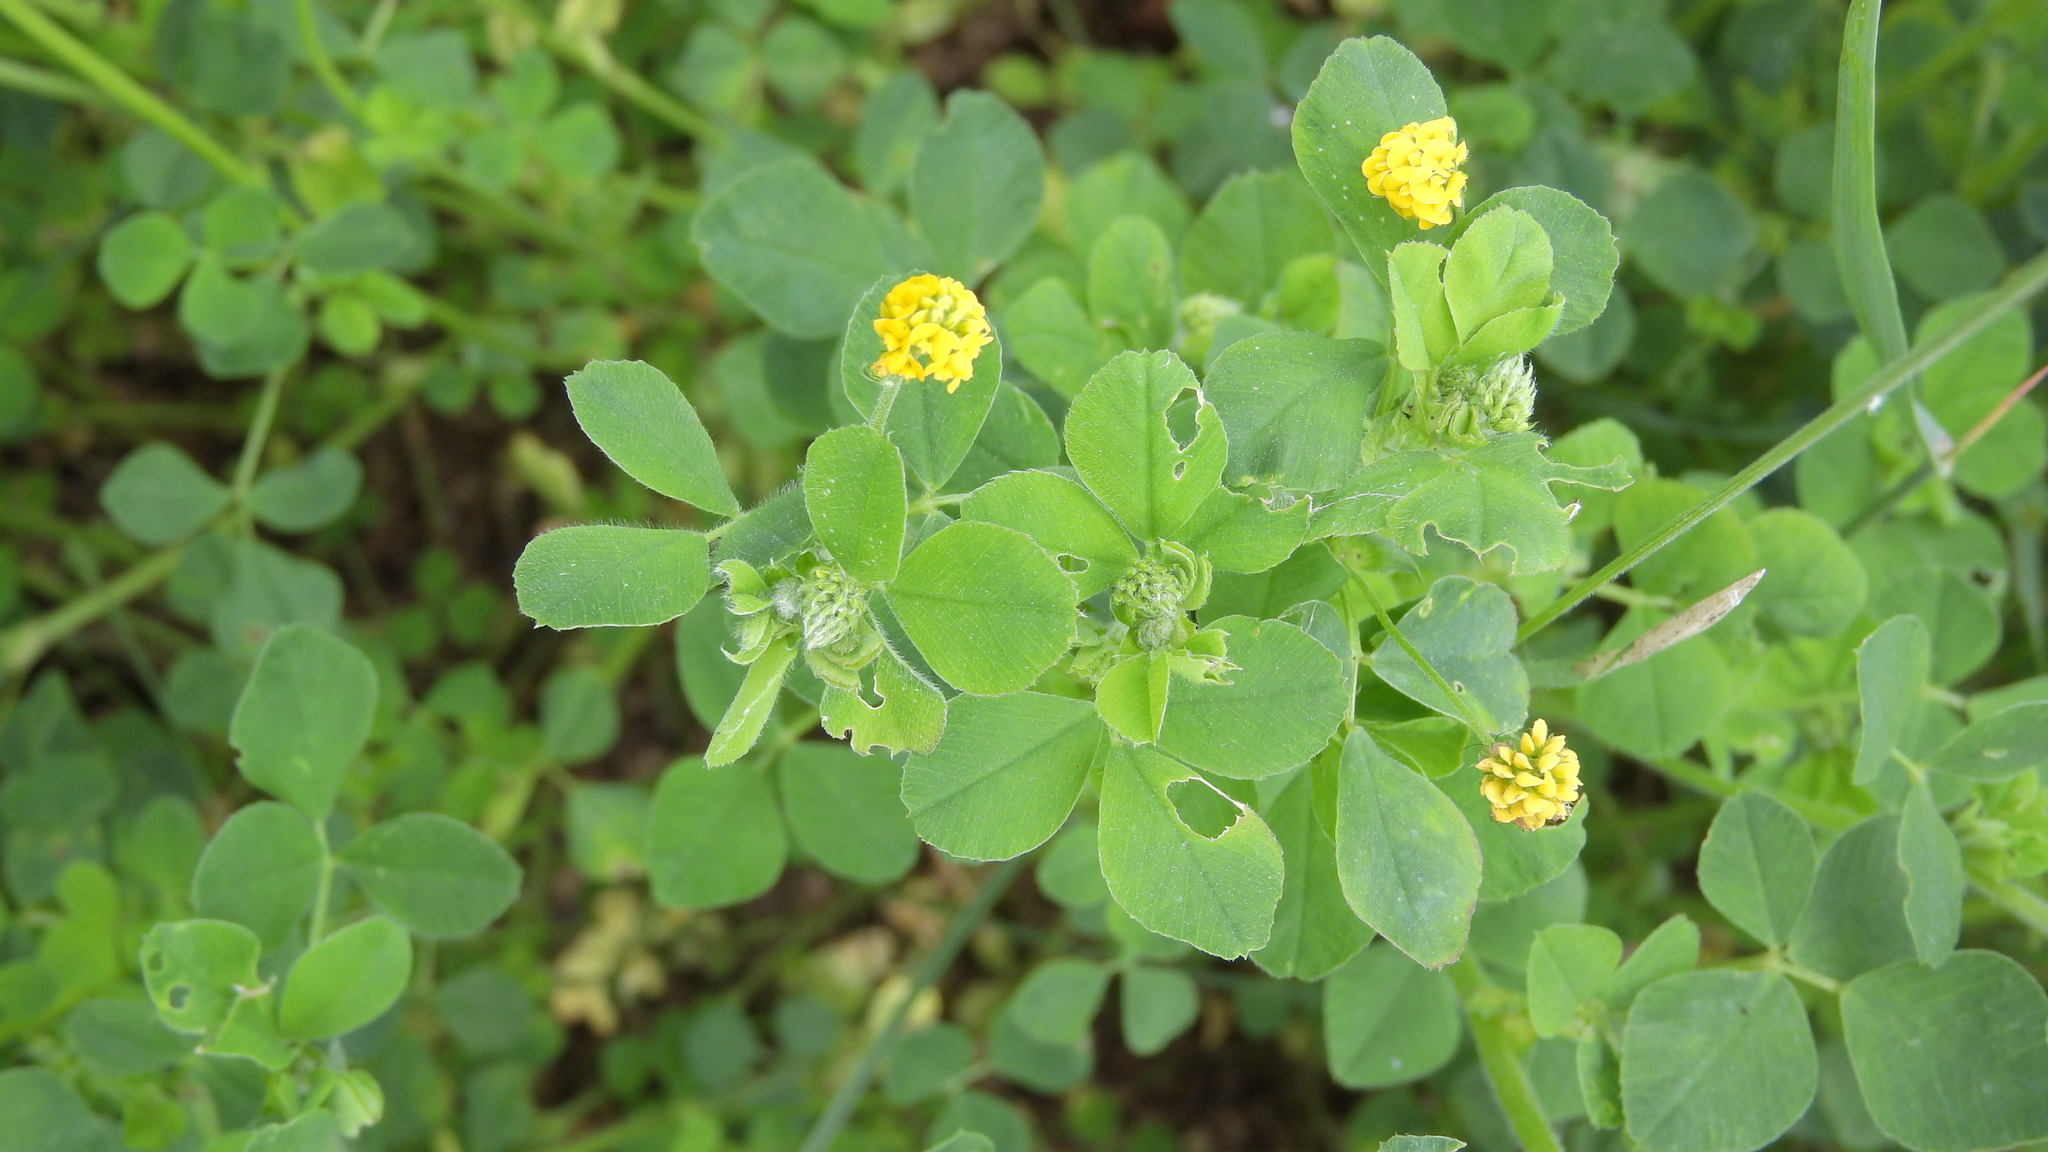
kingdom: Plantae
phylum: Tracheophyta
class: Magnoliopsida
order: Fabales
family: Fabaceae
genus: Medicago
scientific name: Medicago lupulina
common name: Black medick
